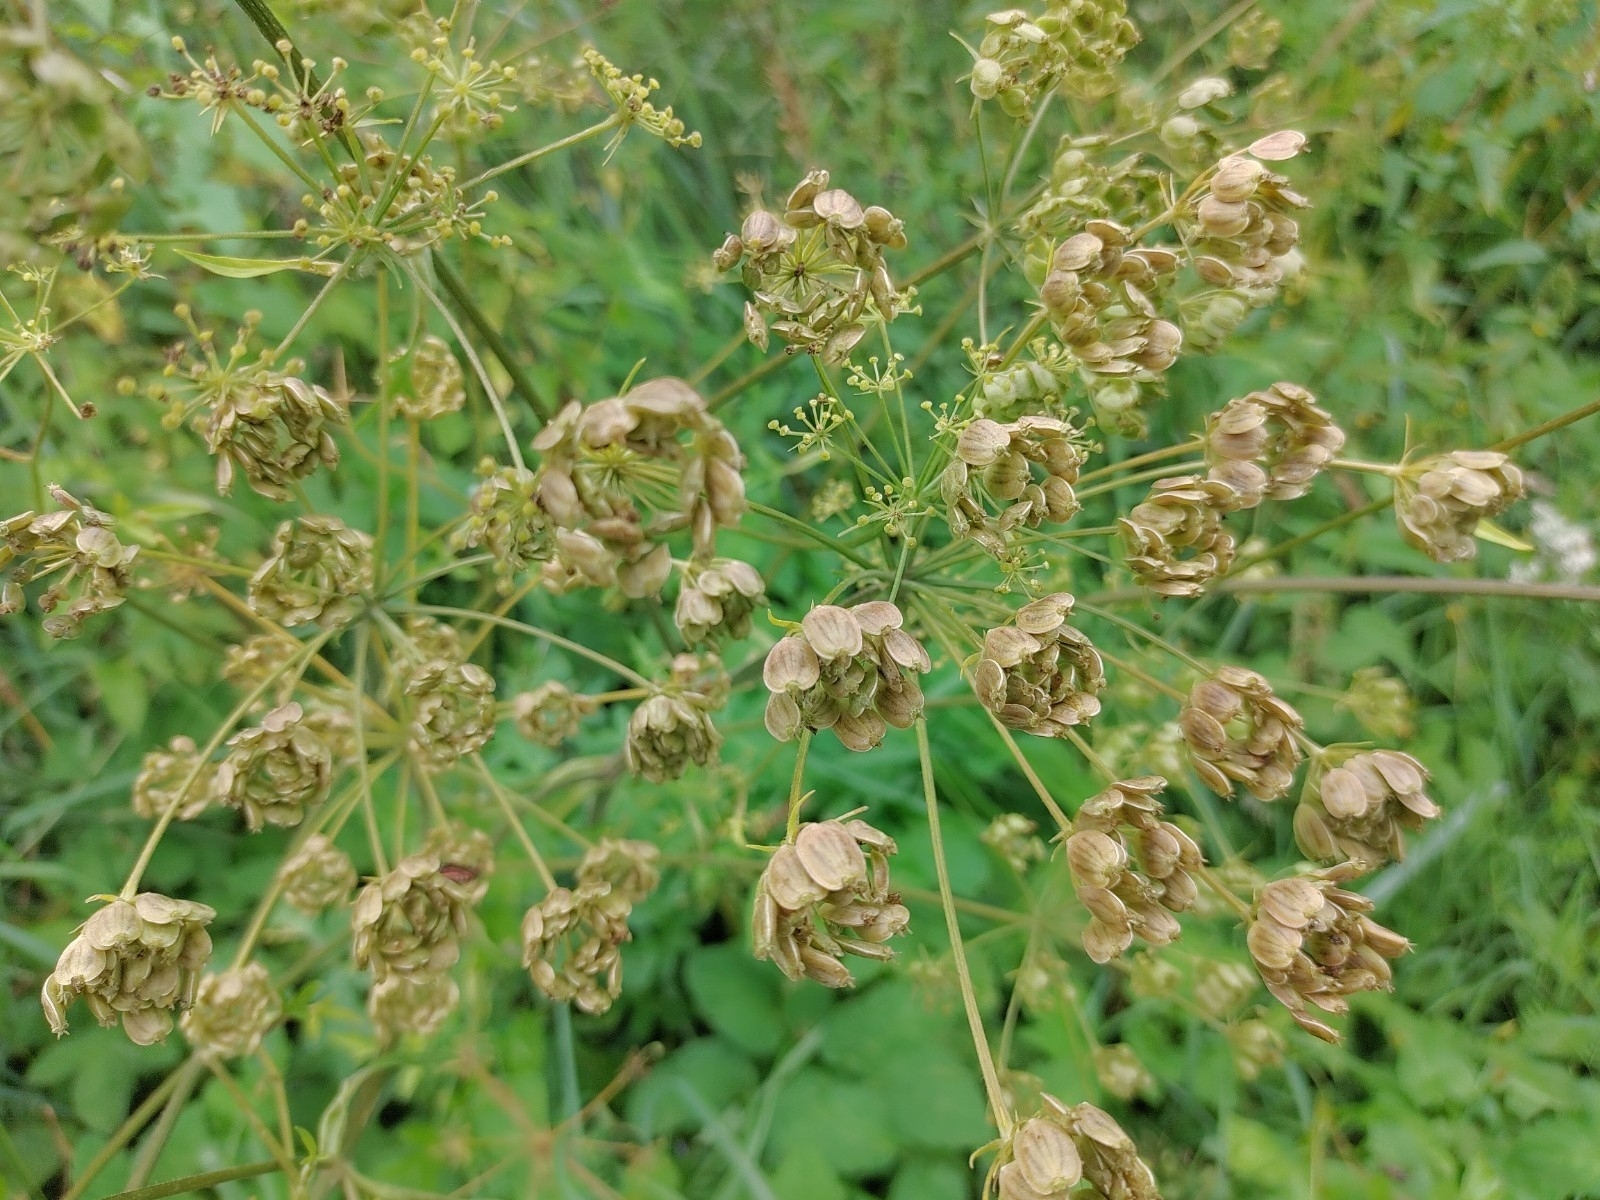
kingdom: Plantae
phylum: Tracheophyta
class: Magnoliopsida
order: Apiales
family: Apiaceae
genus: Heracleum
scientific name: Heracleum sphondylium
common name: Hogweed
